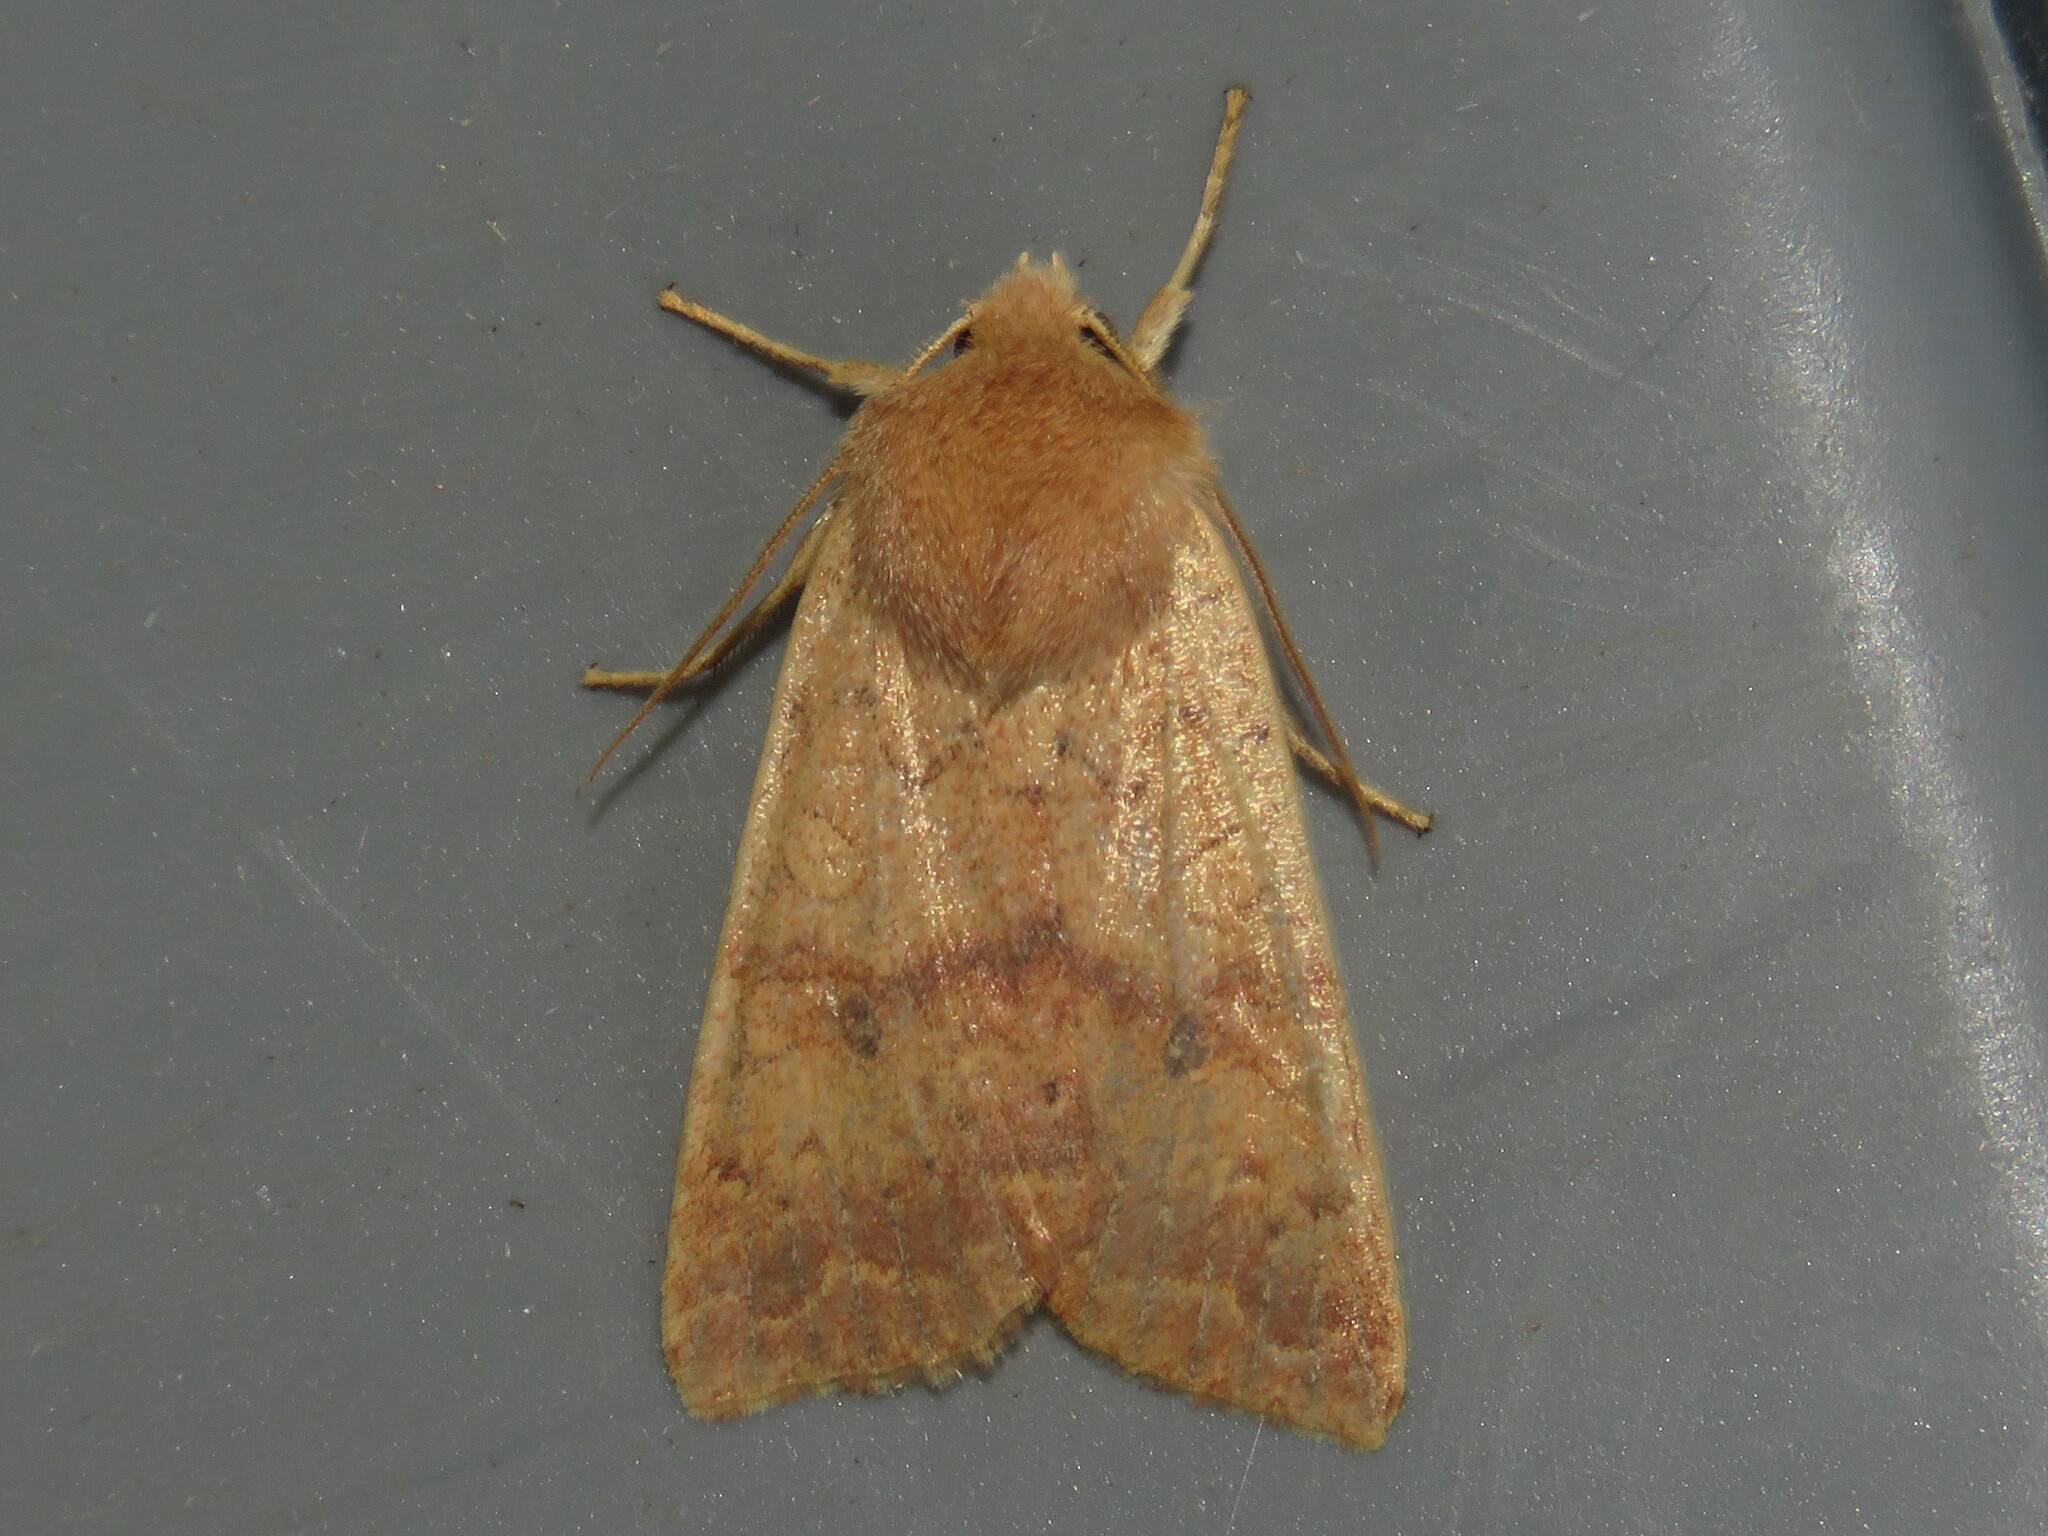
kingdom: Animalia
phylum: Arthropoda
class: Insecta
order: Lepidoptera
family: Noctuidae
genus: Agrochola
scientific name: Agrochola bicolorago
